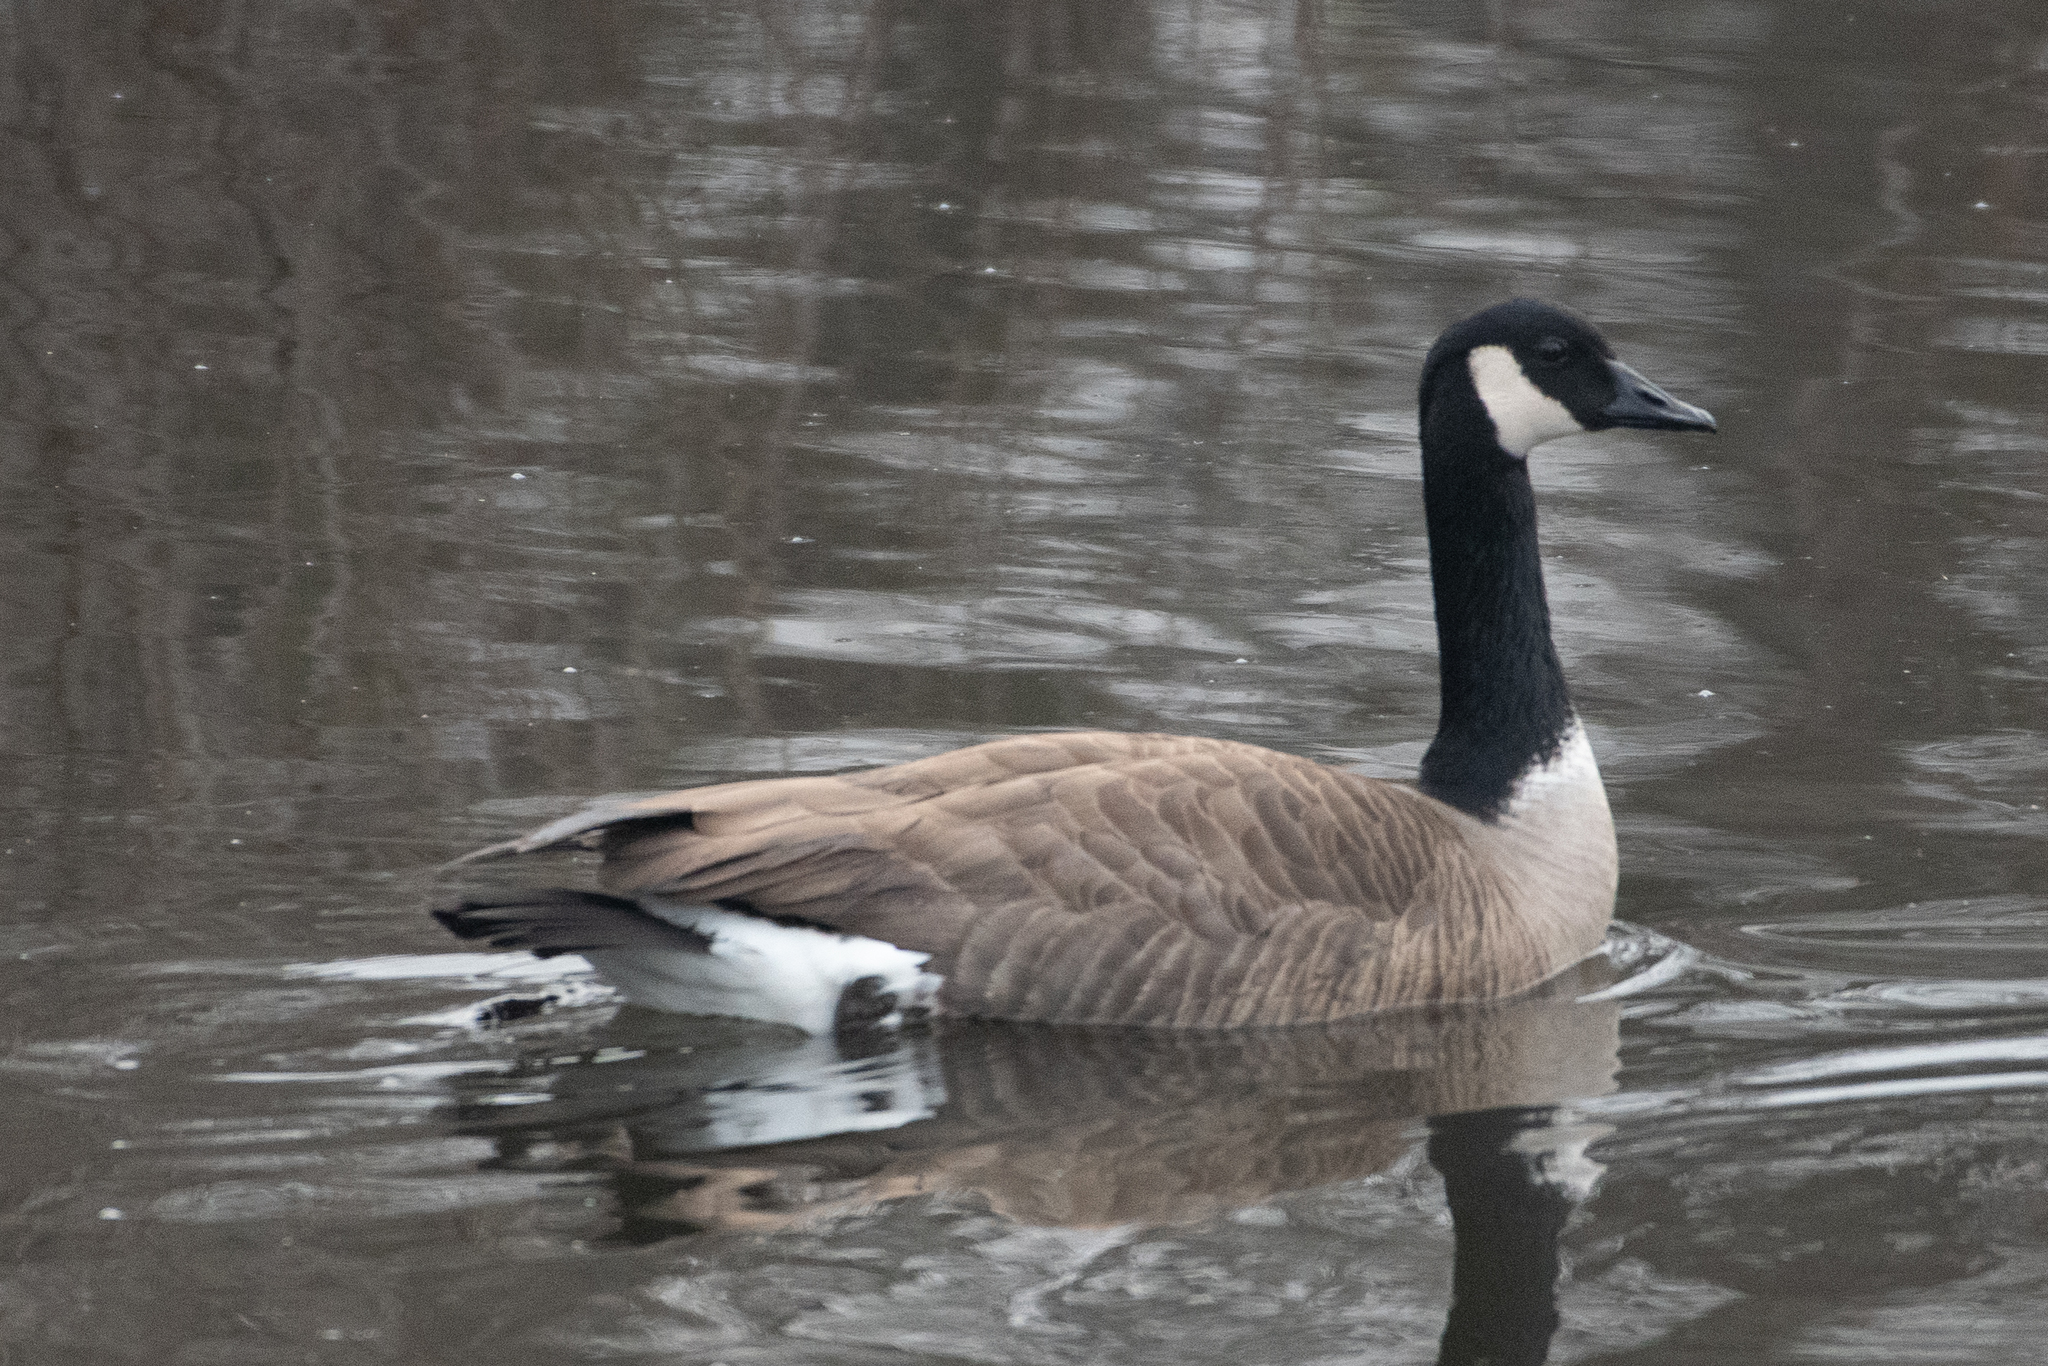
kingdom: Animalia
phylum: Chordata
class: Aves
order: Anseriformes
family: Anatidae
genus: Branta
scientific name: Branta canadensis
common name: Canada goose
